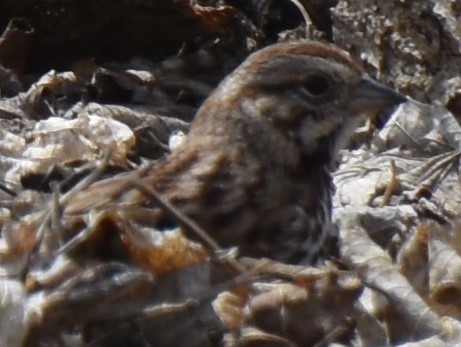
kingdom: Animalia
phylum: Chordata
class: Aves
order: Passeriformes
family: Passerellidae
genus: Melospiza
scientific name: Melospiza melodia
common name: Song sparrow
